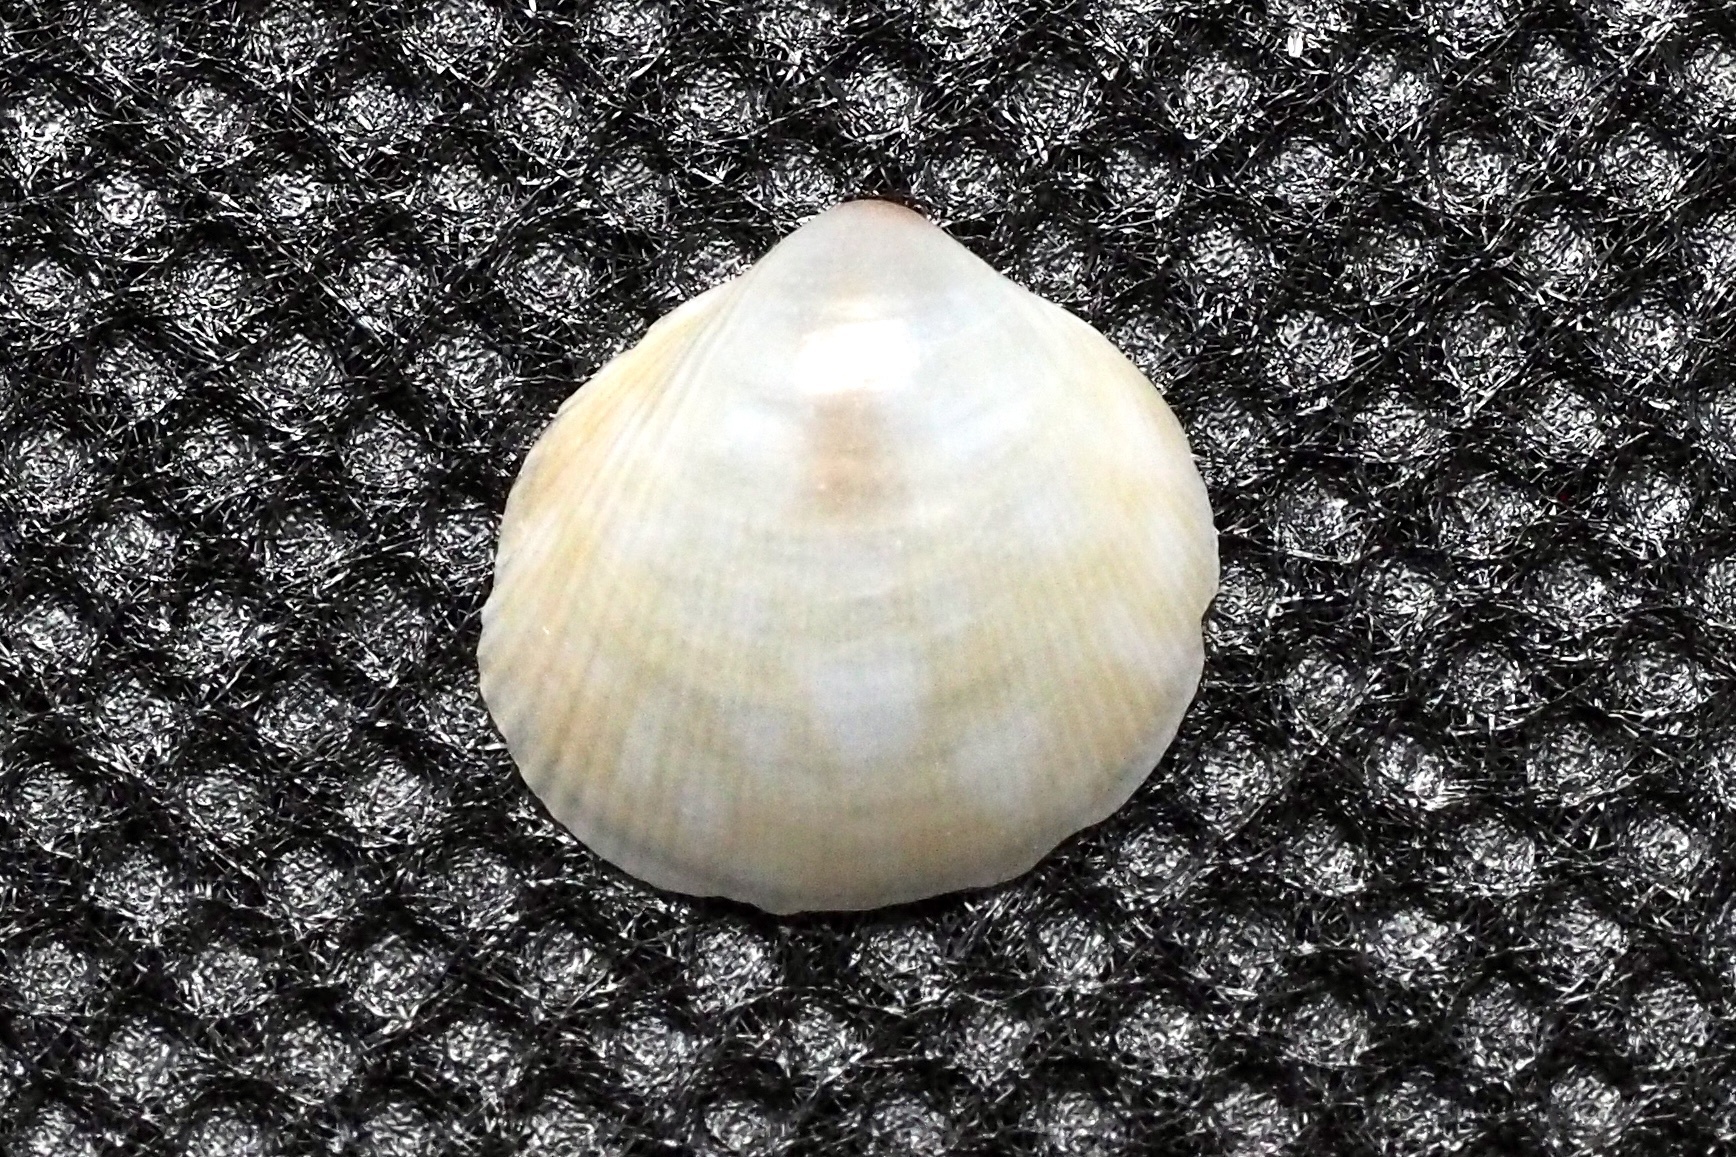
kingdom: Animalia
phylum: Mollusca
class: Bivalvia
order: Cardiida
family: Cardiidae
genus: Fulvia
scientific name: Fulvia undatopicta
